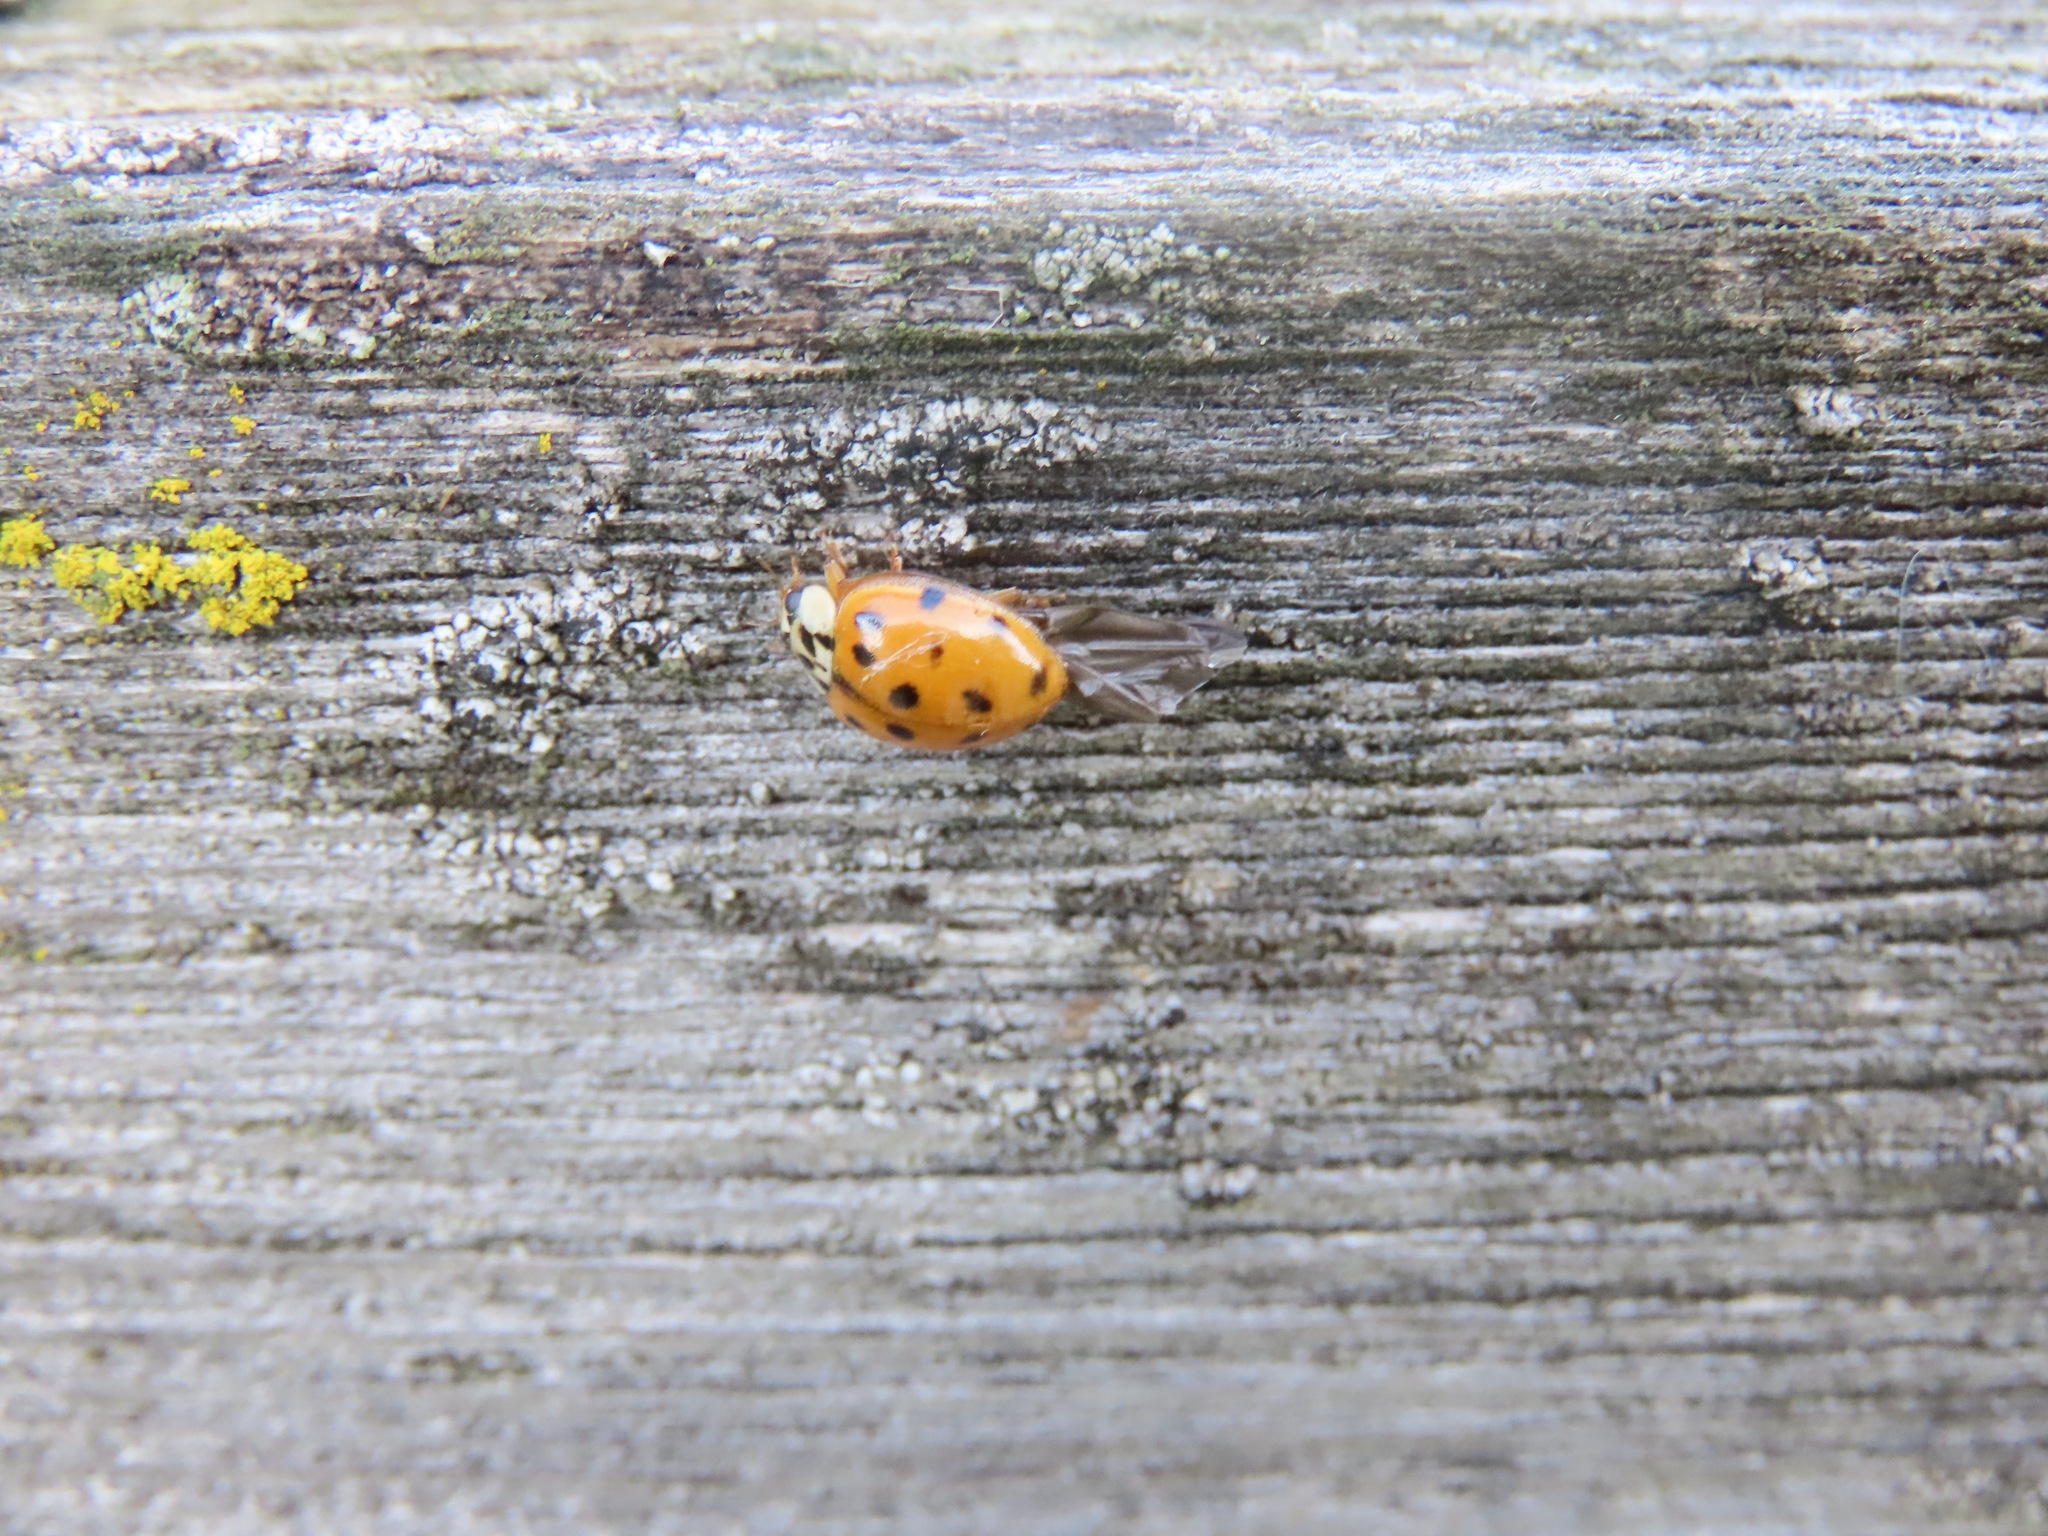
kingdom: Animalia
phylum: Arthropoda
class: Insecta
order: Coleoptera
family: Coccinellidae
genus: Harmonia
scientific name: Harmonia axyridis
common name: Harlequin ladybird
